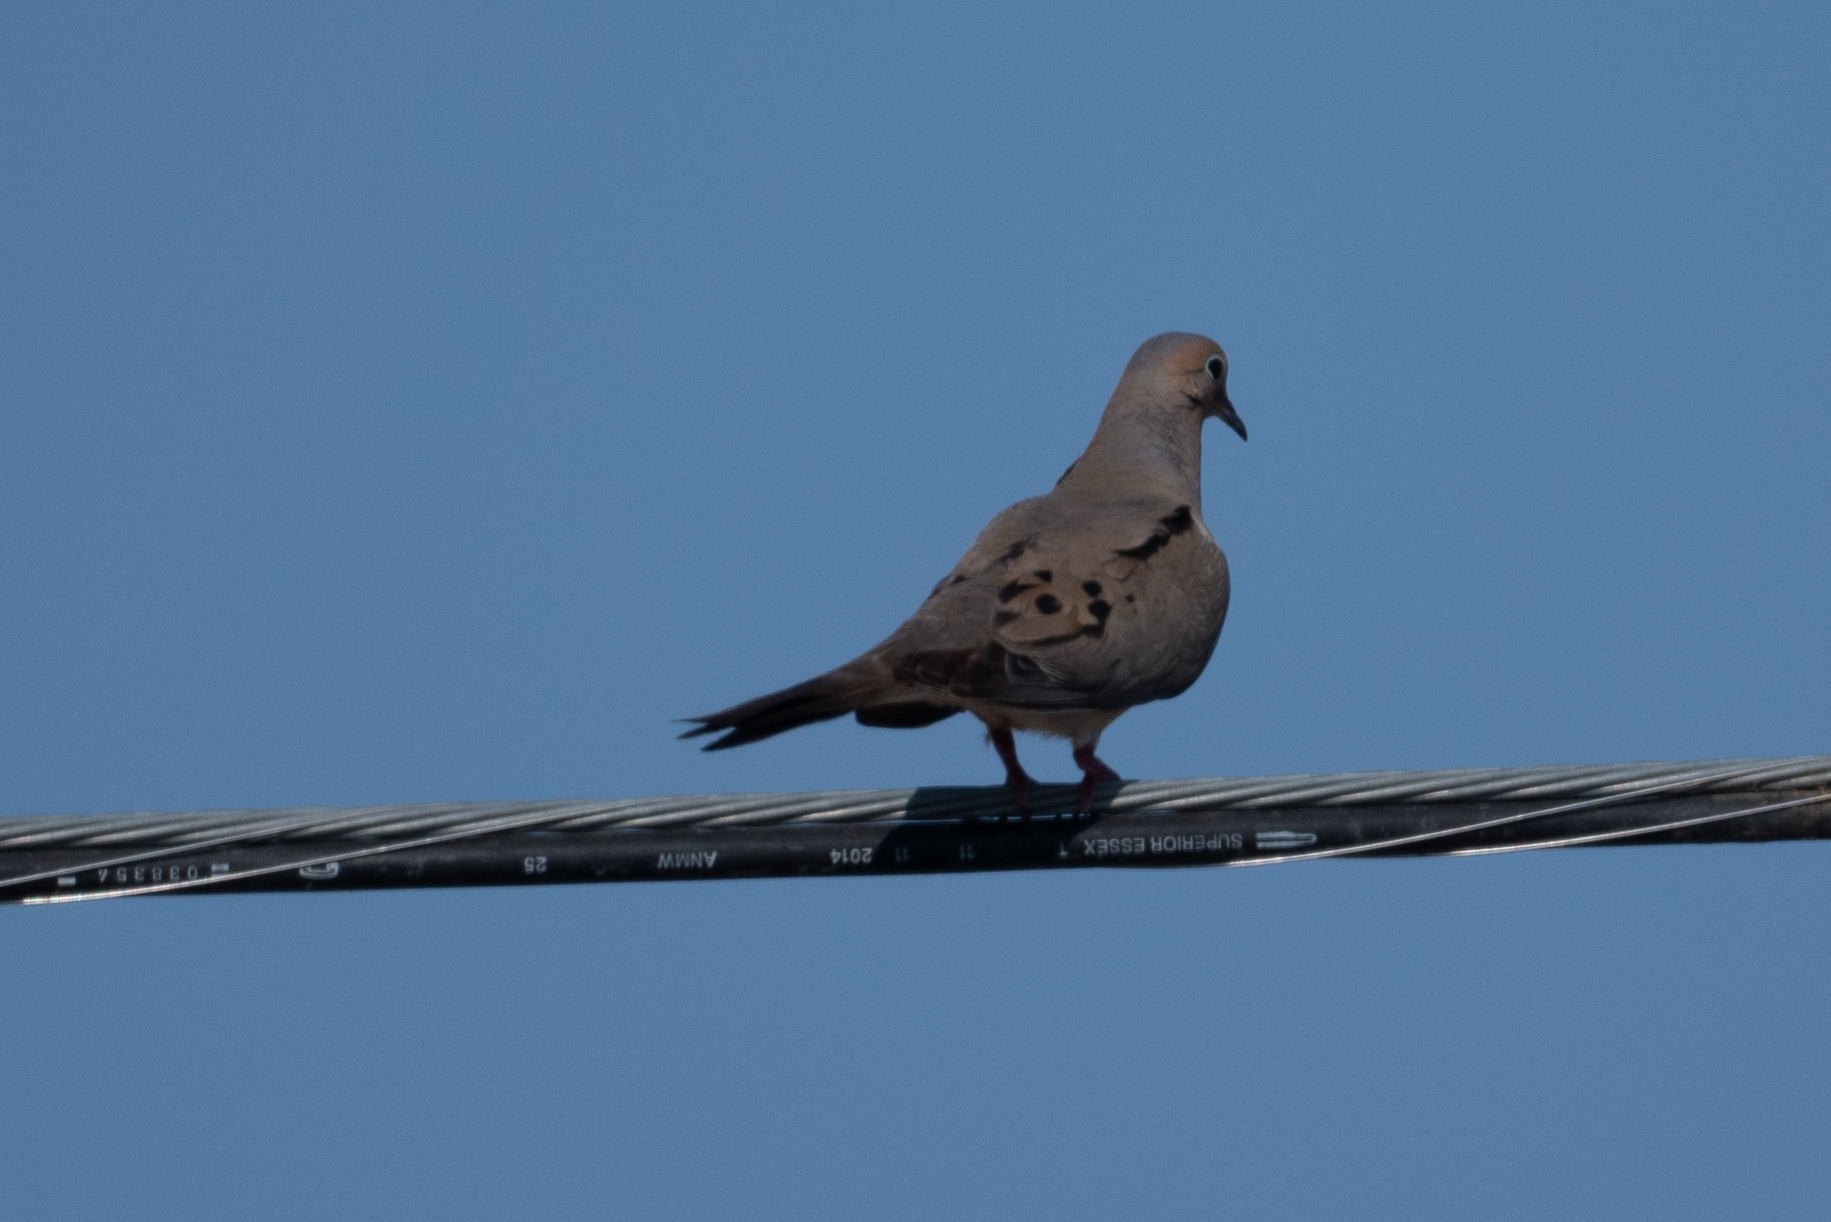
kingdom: Animalia
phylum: Chordata
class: Aves
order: Columbiformes
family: Columbidae
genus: Zenaida
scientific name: Zenaida macroura
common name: Mourning dove
